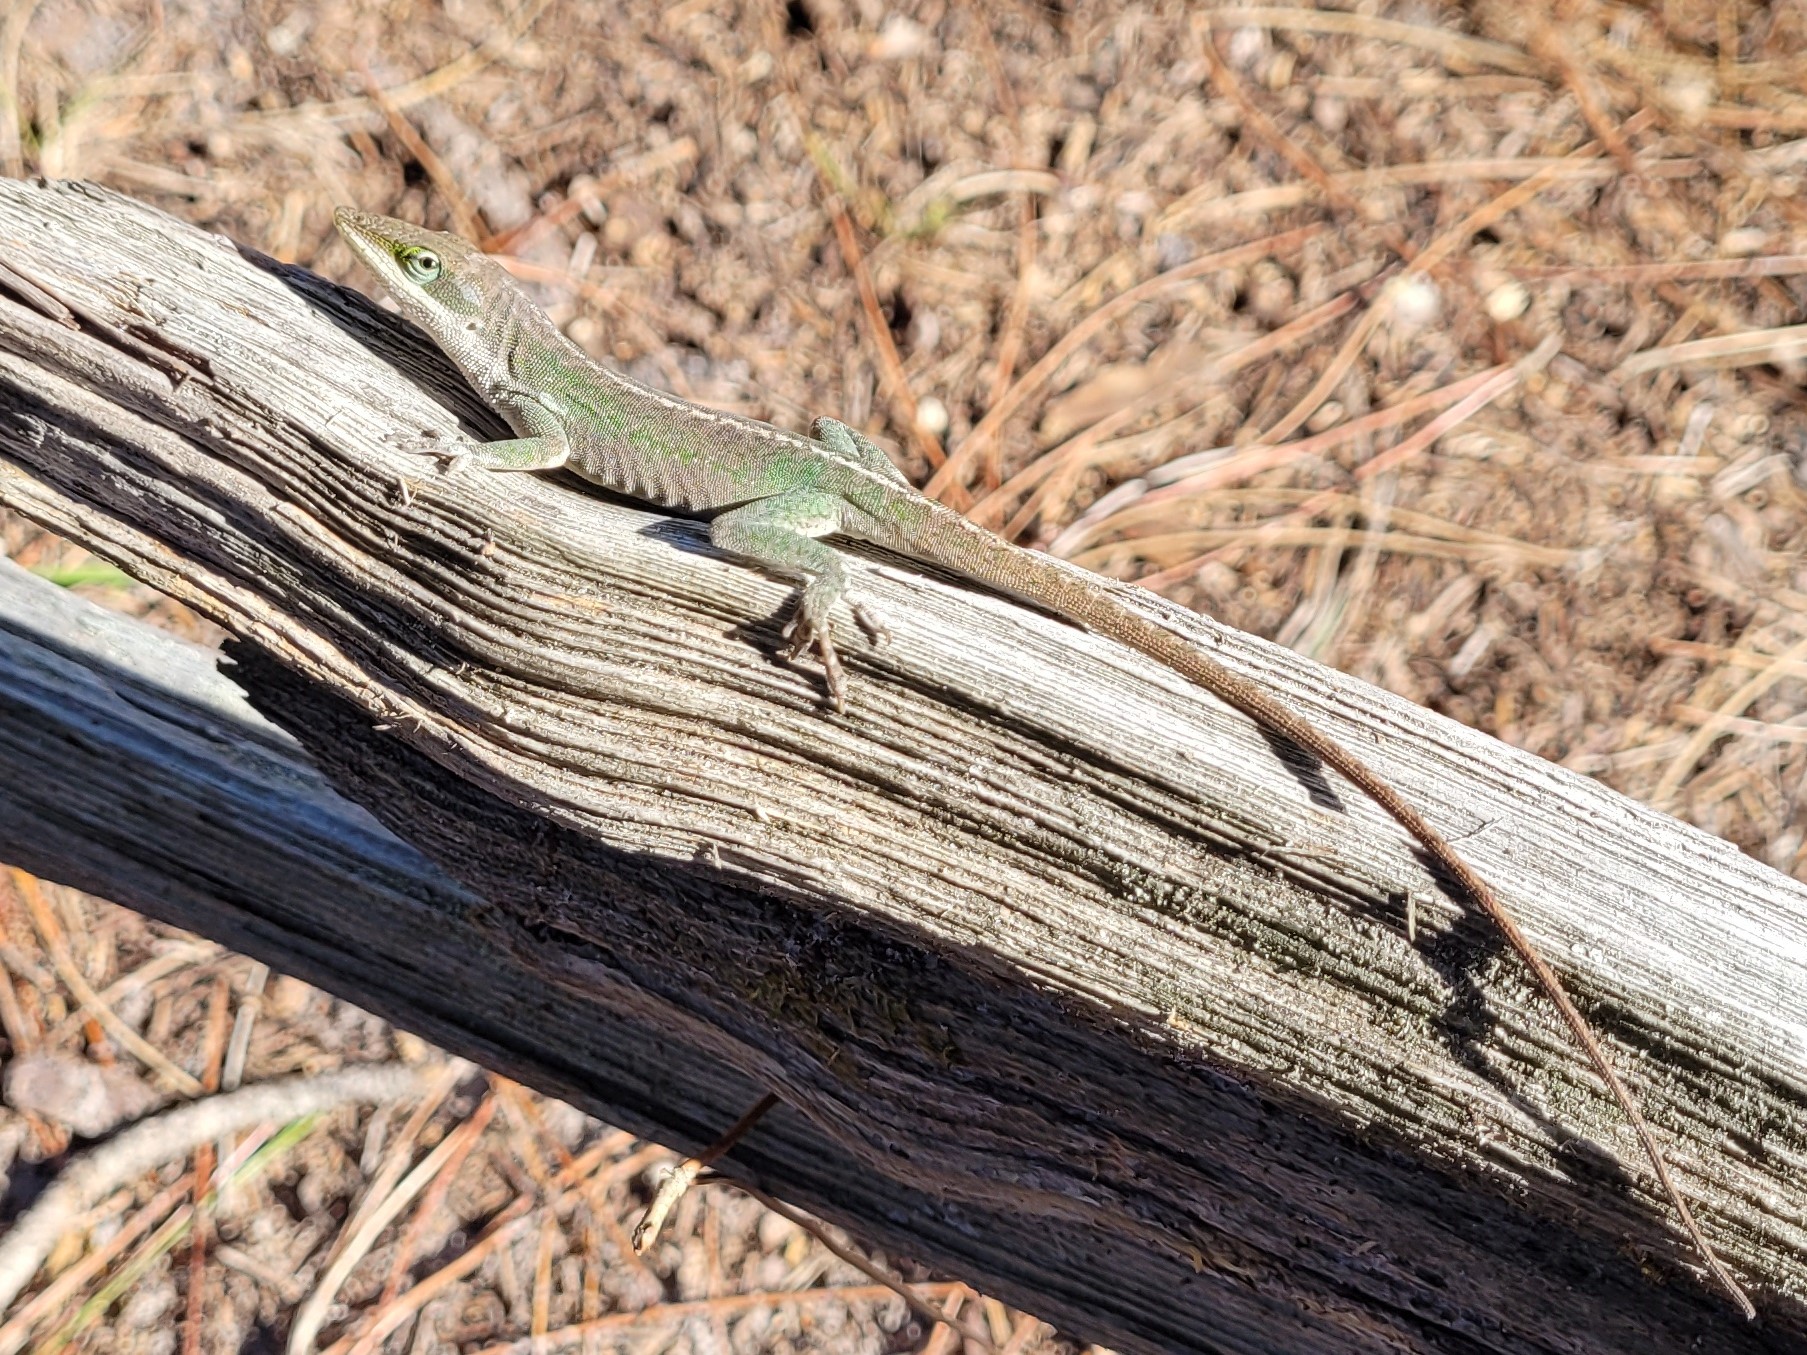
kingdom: Animalia
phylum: Chordata
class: Squamata
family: Dactyloidae
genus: Anolis
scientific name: Anolis carolinensis
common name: Green anole
